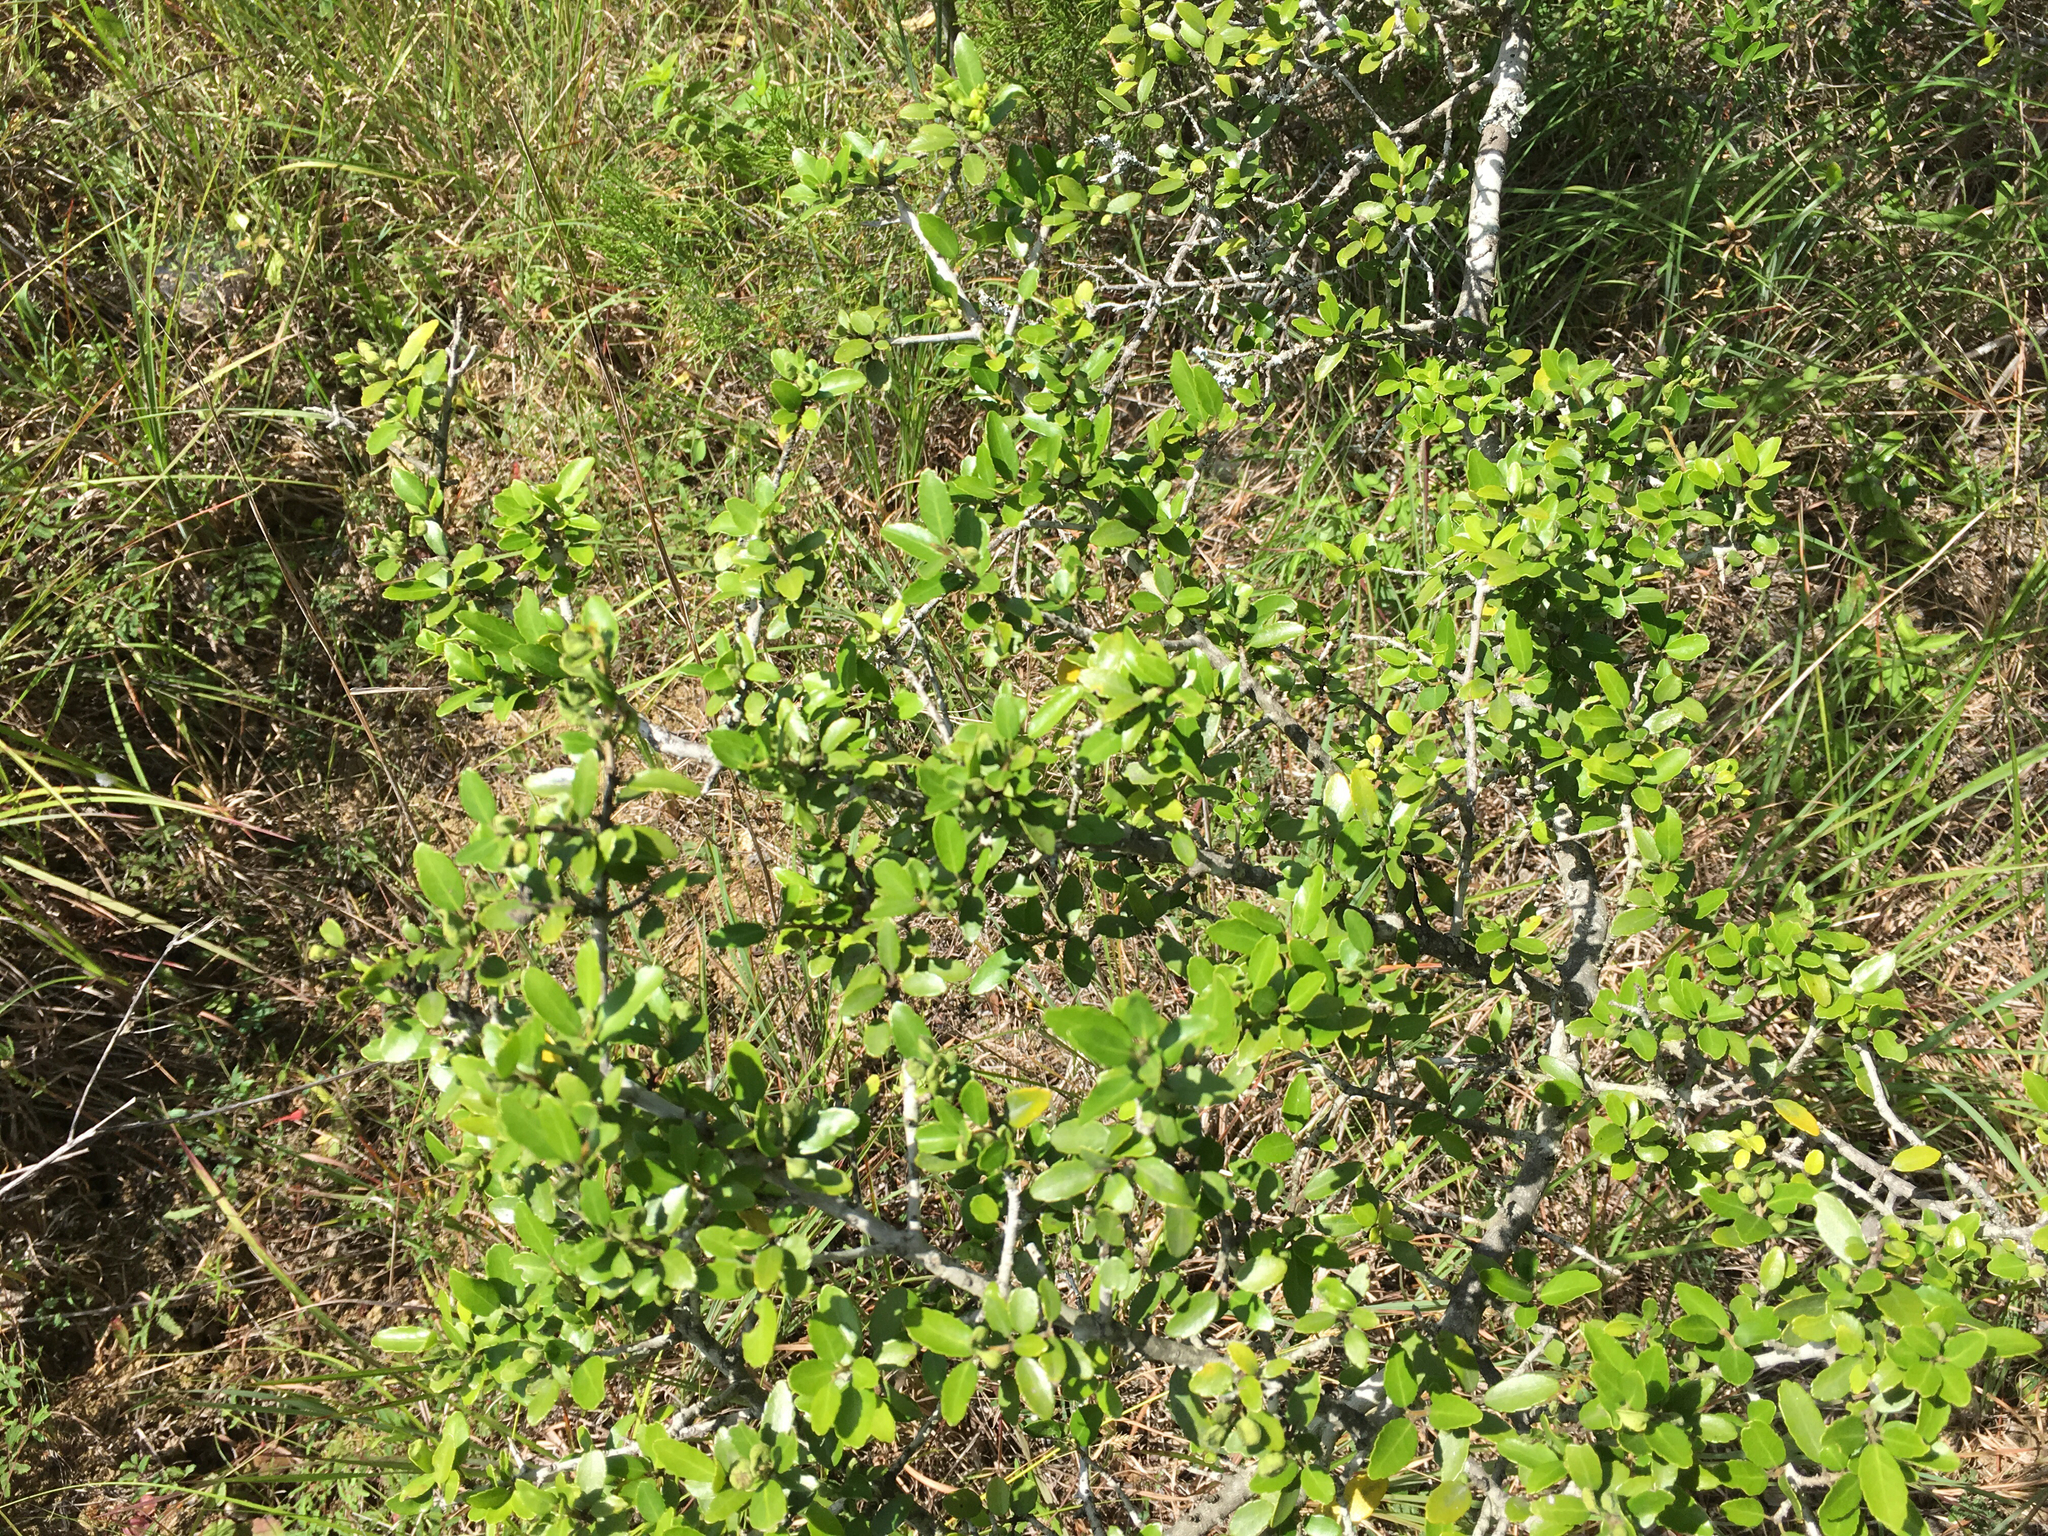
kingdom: Plantae
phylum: Tracheophyta
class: Magnoliopsida
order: Aquifoliales
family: Aquifoliaceae
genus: Ilex
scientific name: Ilex vomitoria
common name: Yaupon holly
